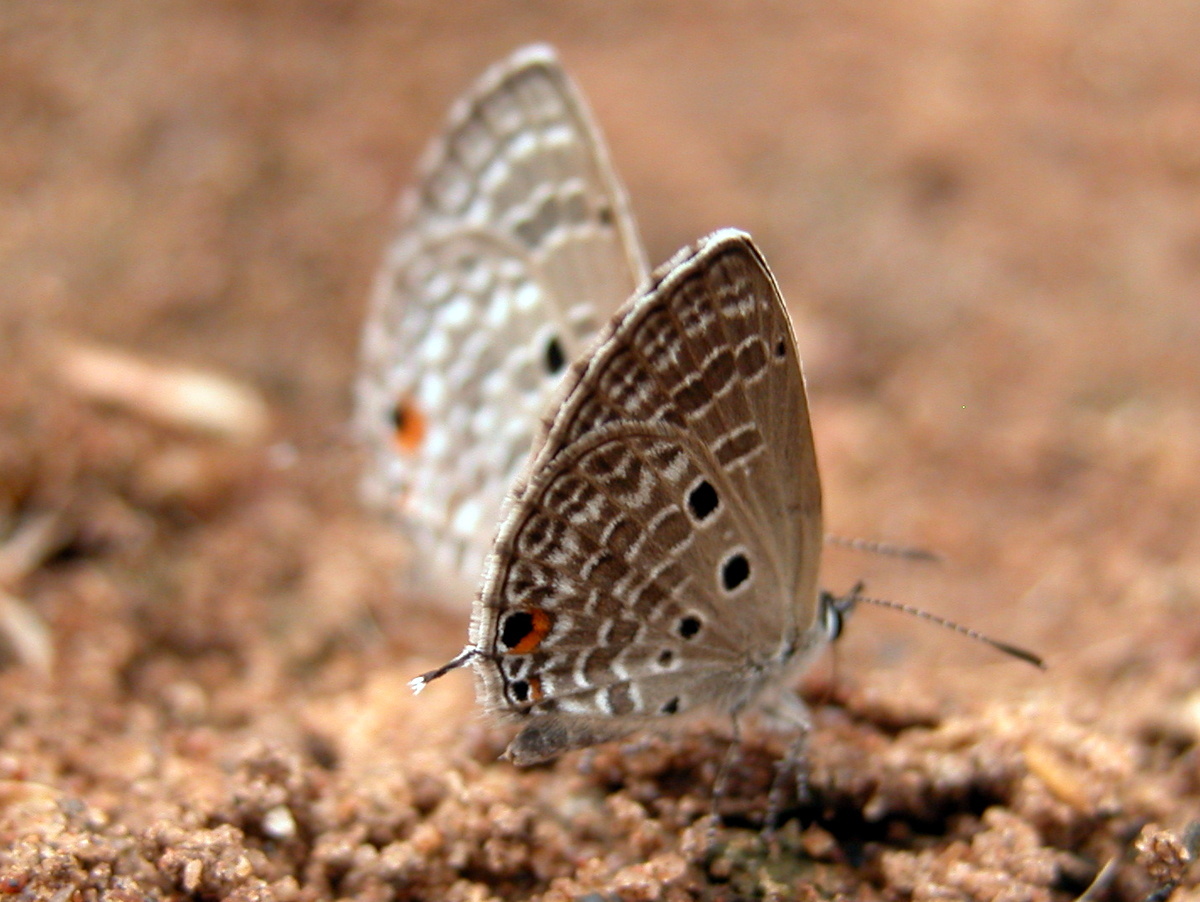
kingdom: Animalia
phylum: Arthropoda
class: Insecta
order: Lepidoptera
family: Lycaenidae
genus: Luthrodes
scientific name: Luthrodes pandava
